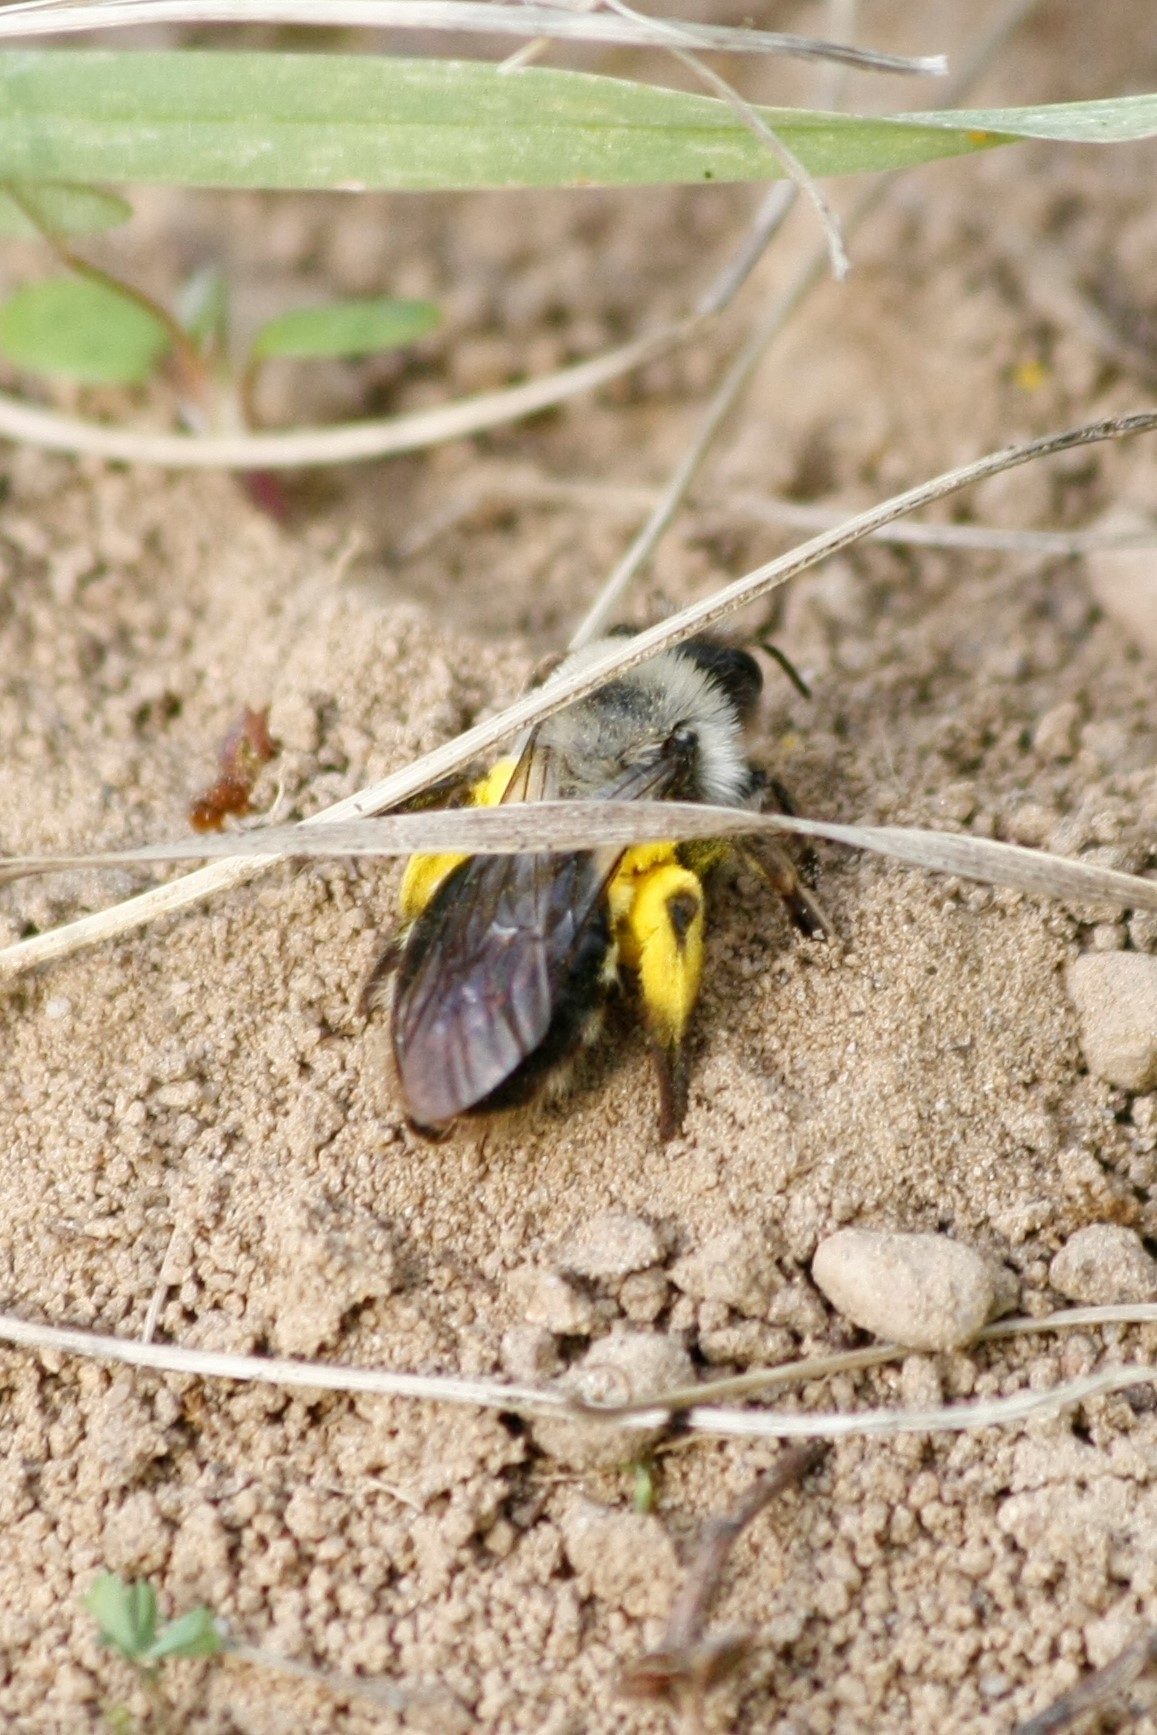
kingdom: Animalia
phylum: Arthropoda
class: Insecta
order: Hymenoptera
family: Andrenidae
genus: Andrena
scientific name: Andrena vaga
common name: Grey-backed mining bee
